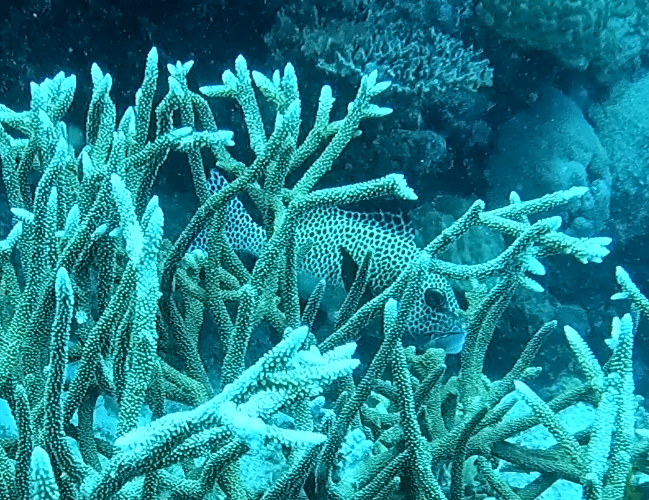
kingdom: Animalia
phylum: Chordata
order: Perciformes
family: Haemulidae
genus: Plectorhinchus
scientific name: Plectorhinchus chaetodonoides
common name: Harlequin sweetlips
